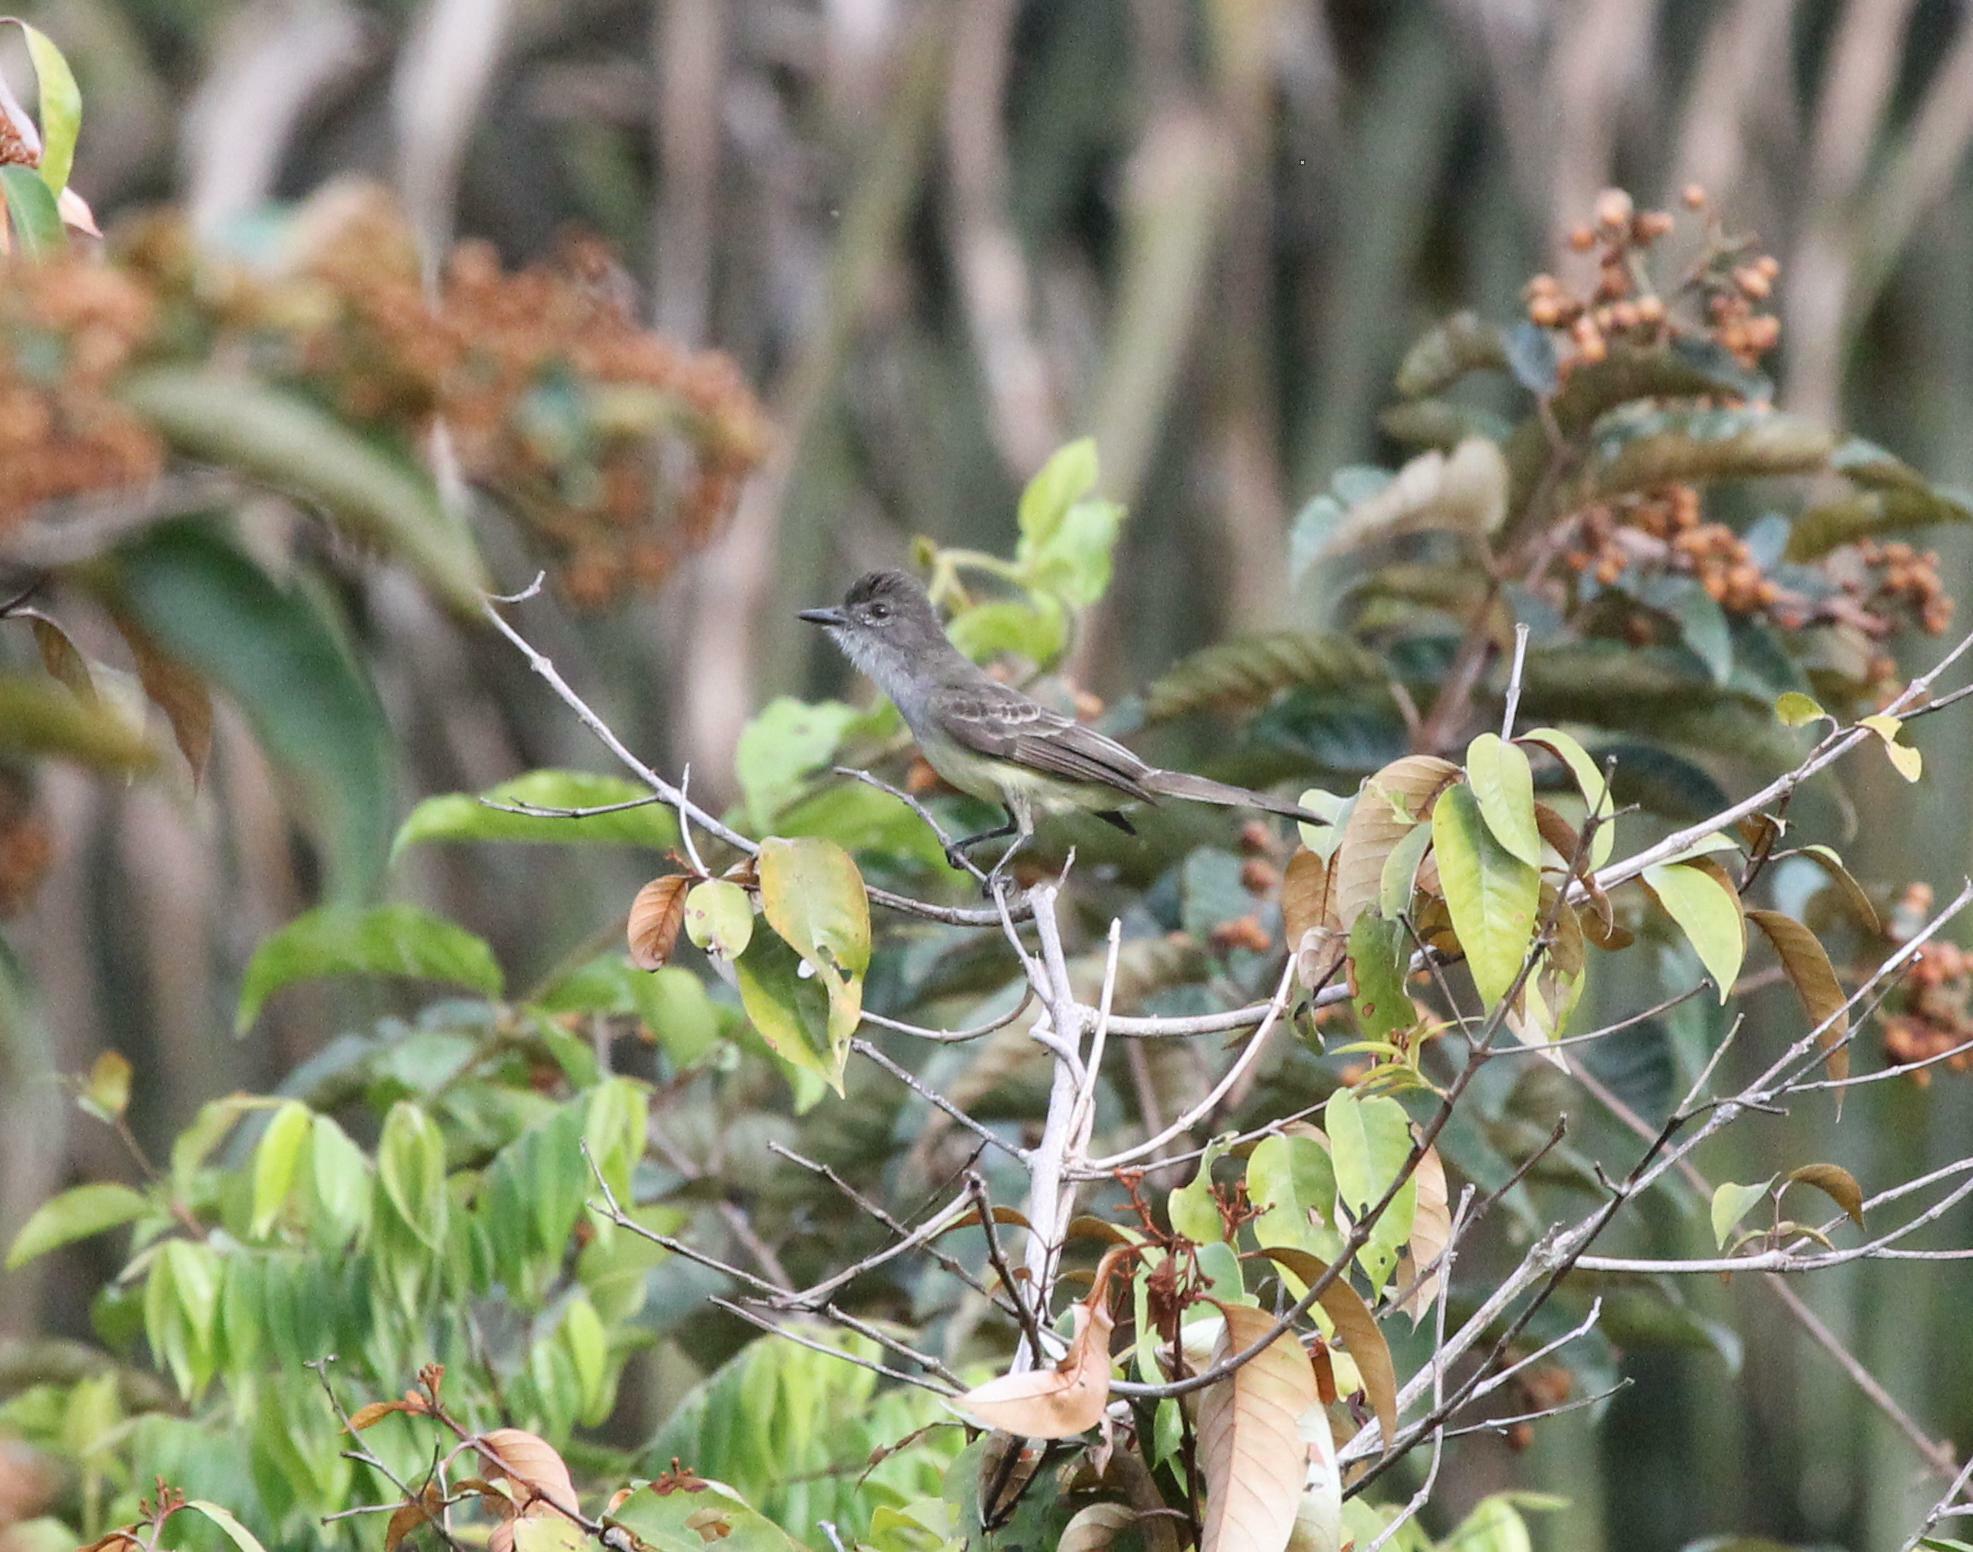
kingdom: Animalia
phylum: Chordata
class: Aves
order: Passeriformes
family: Tyrannidae
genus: Myiarchus
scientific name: Myiarchus ferox
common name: Short-crested flycatcher
